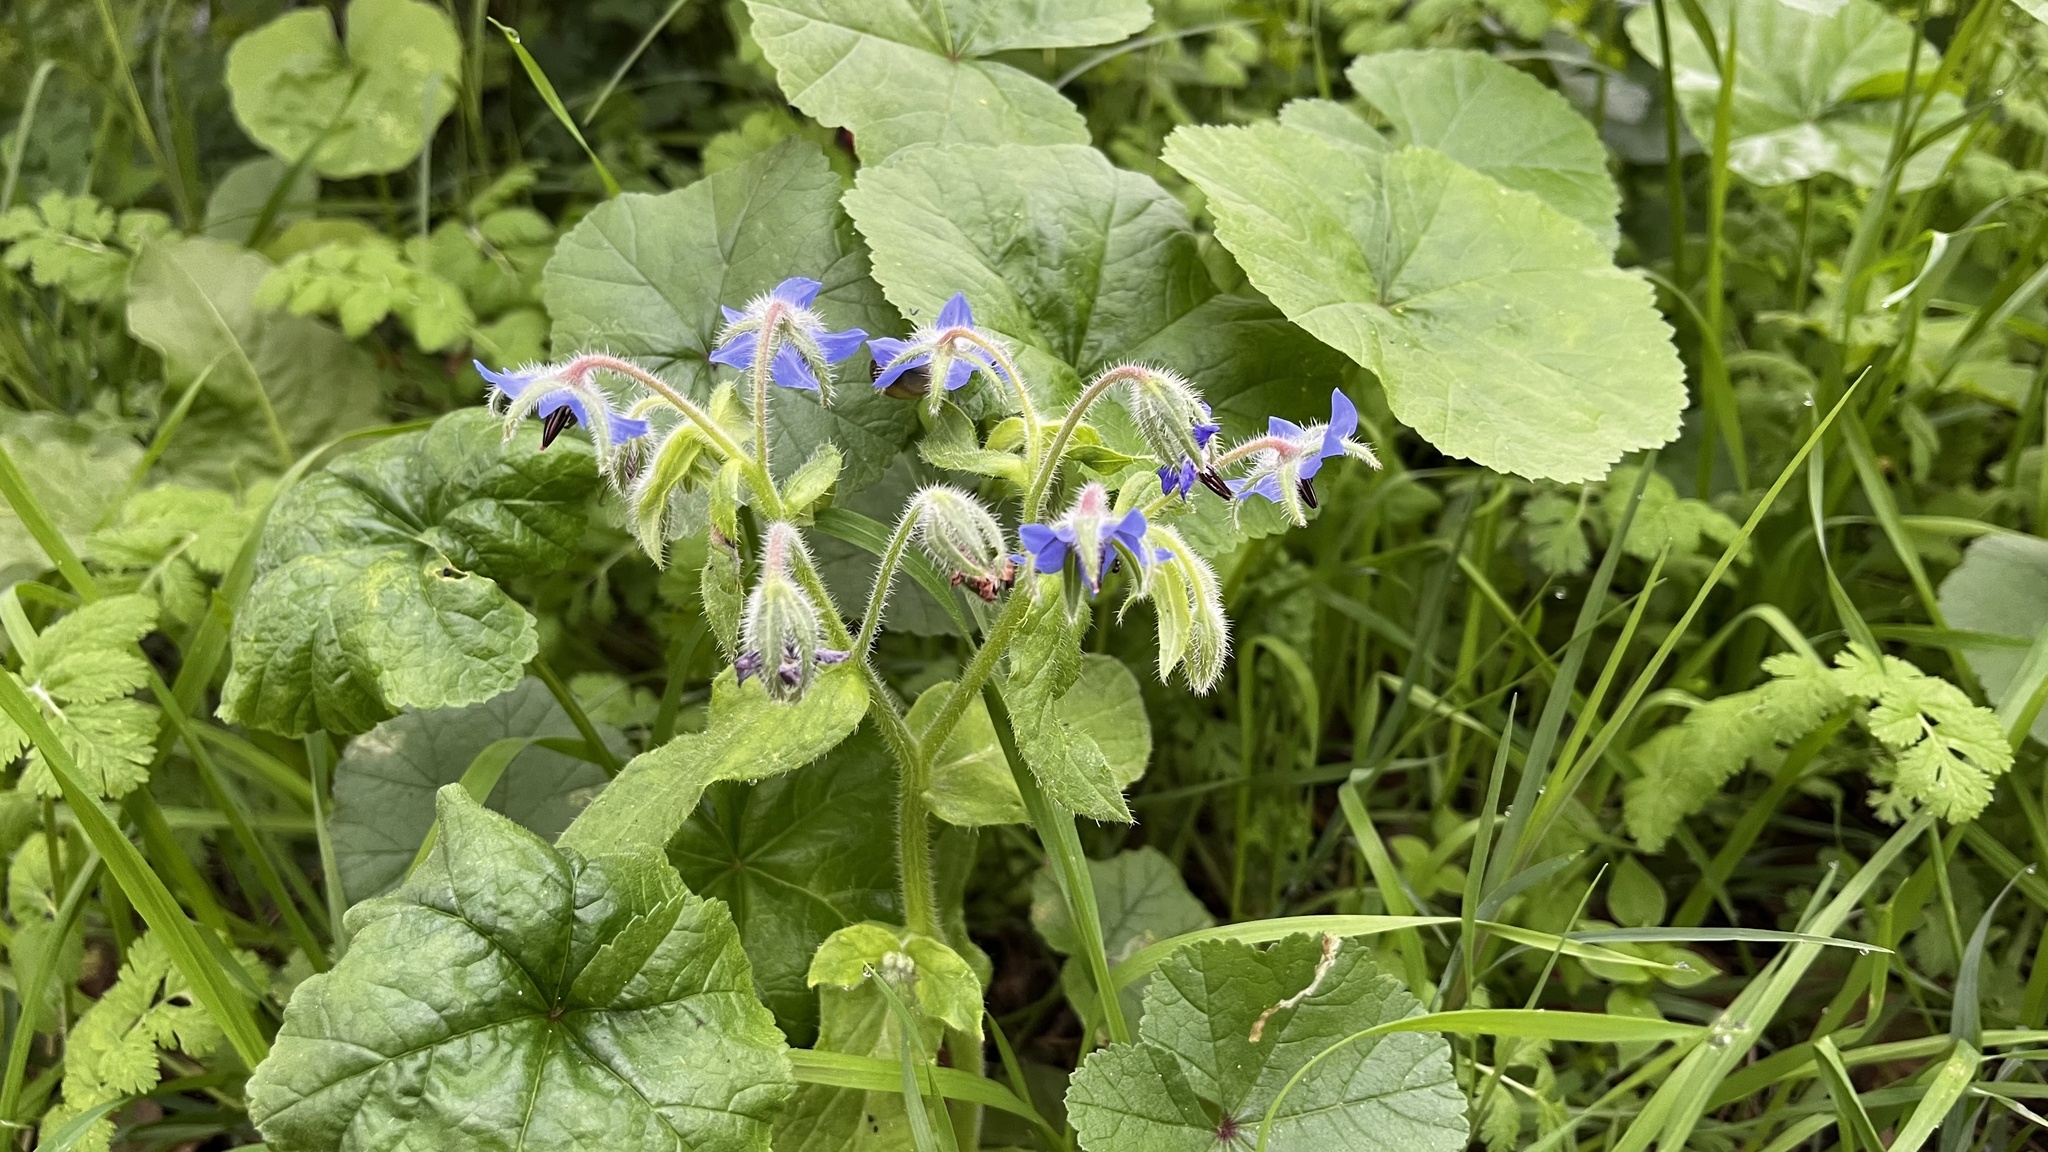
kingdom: Plantae
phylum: Tracheophyta
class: Magnoliopsida
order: Boraginales
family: Boraginaceae
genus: Borago
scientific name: Borago officinalis
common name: Borage
